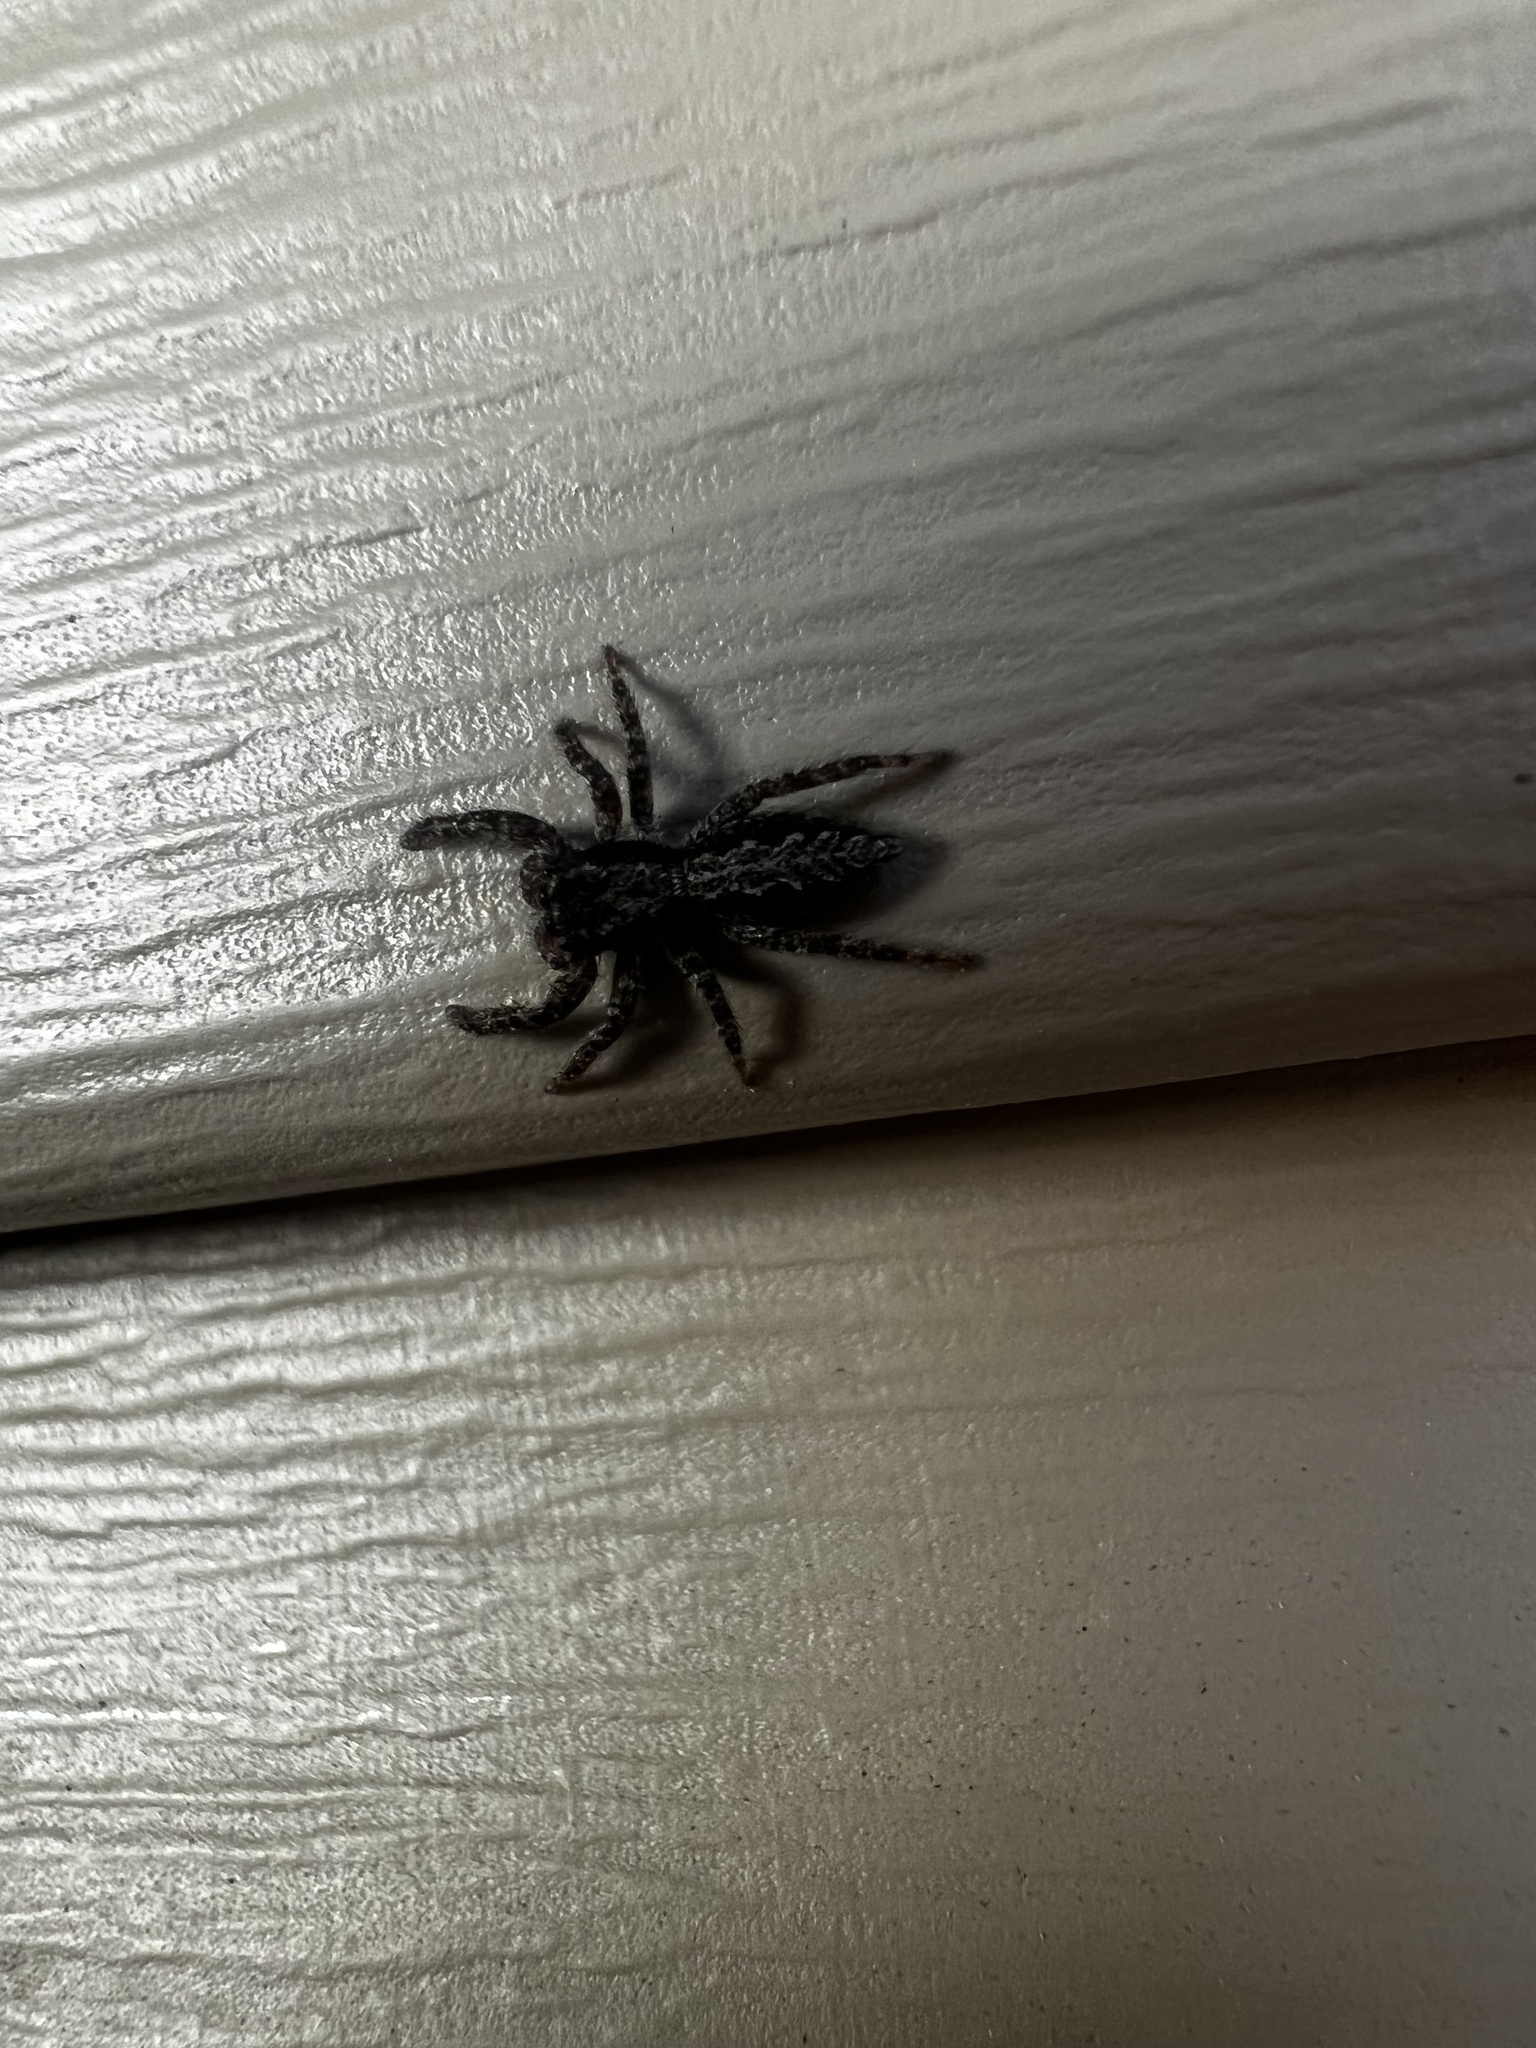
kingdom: Animalia
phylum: Arthropoda
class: Arachnida
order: Araneae
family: Salticidae
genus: Platycryptus
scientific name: Platycryptus californicus
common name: Jumping spiders
